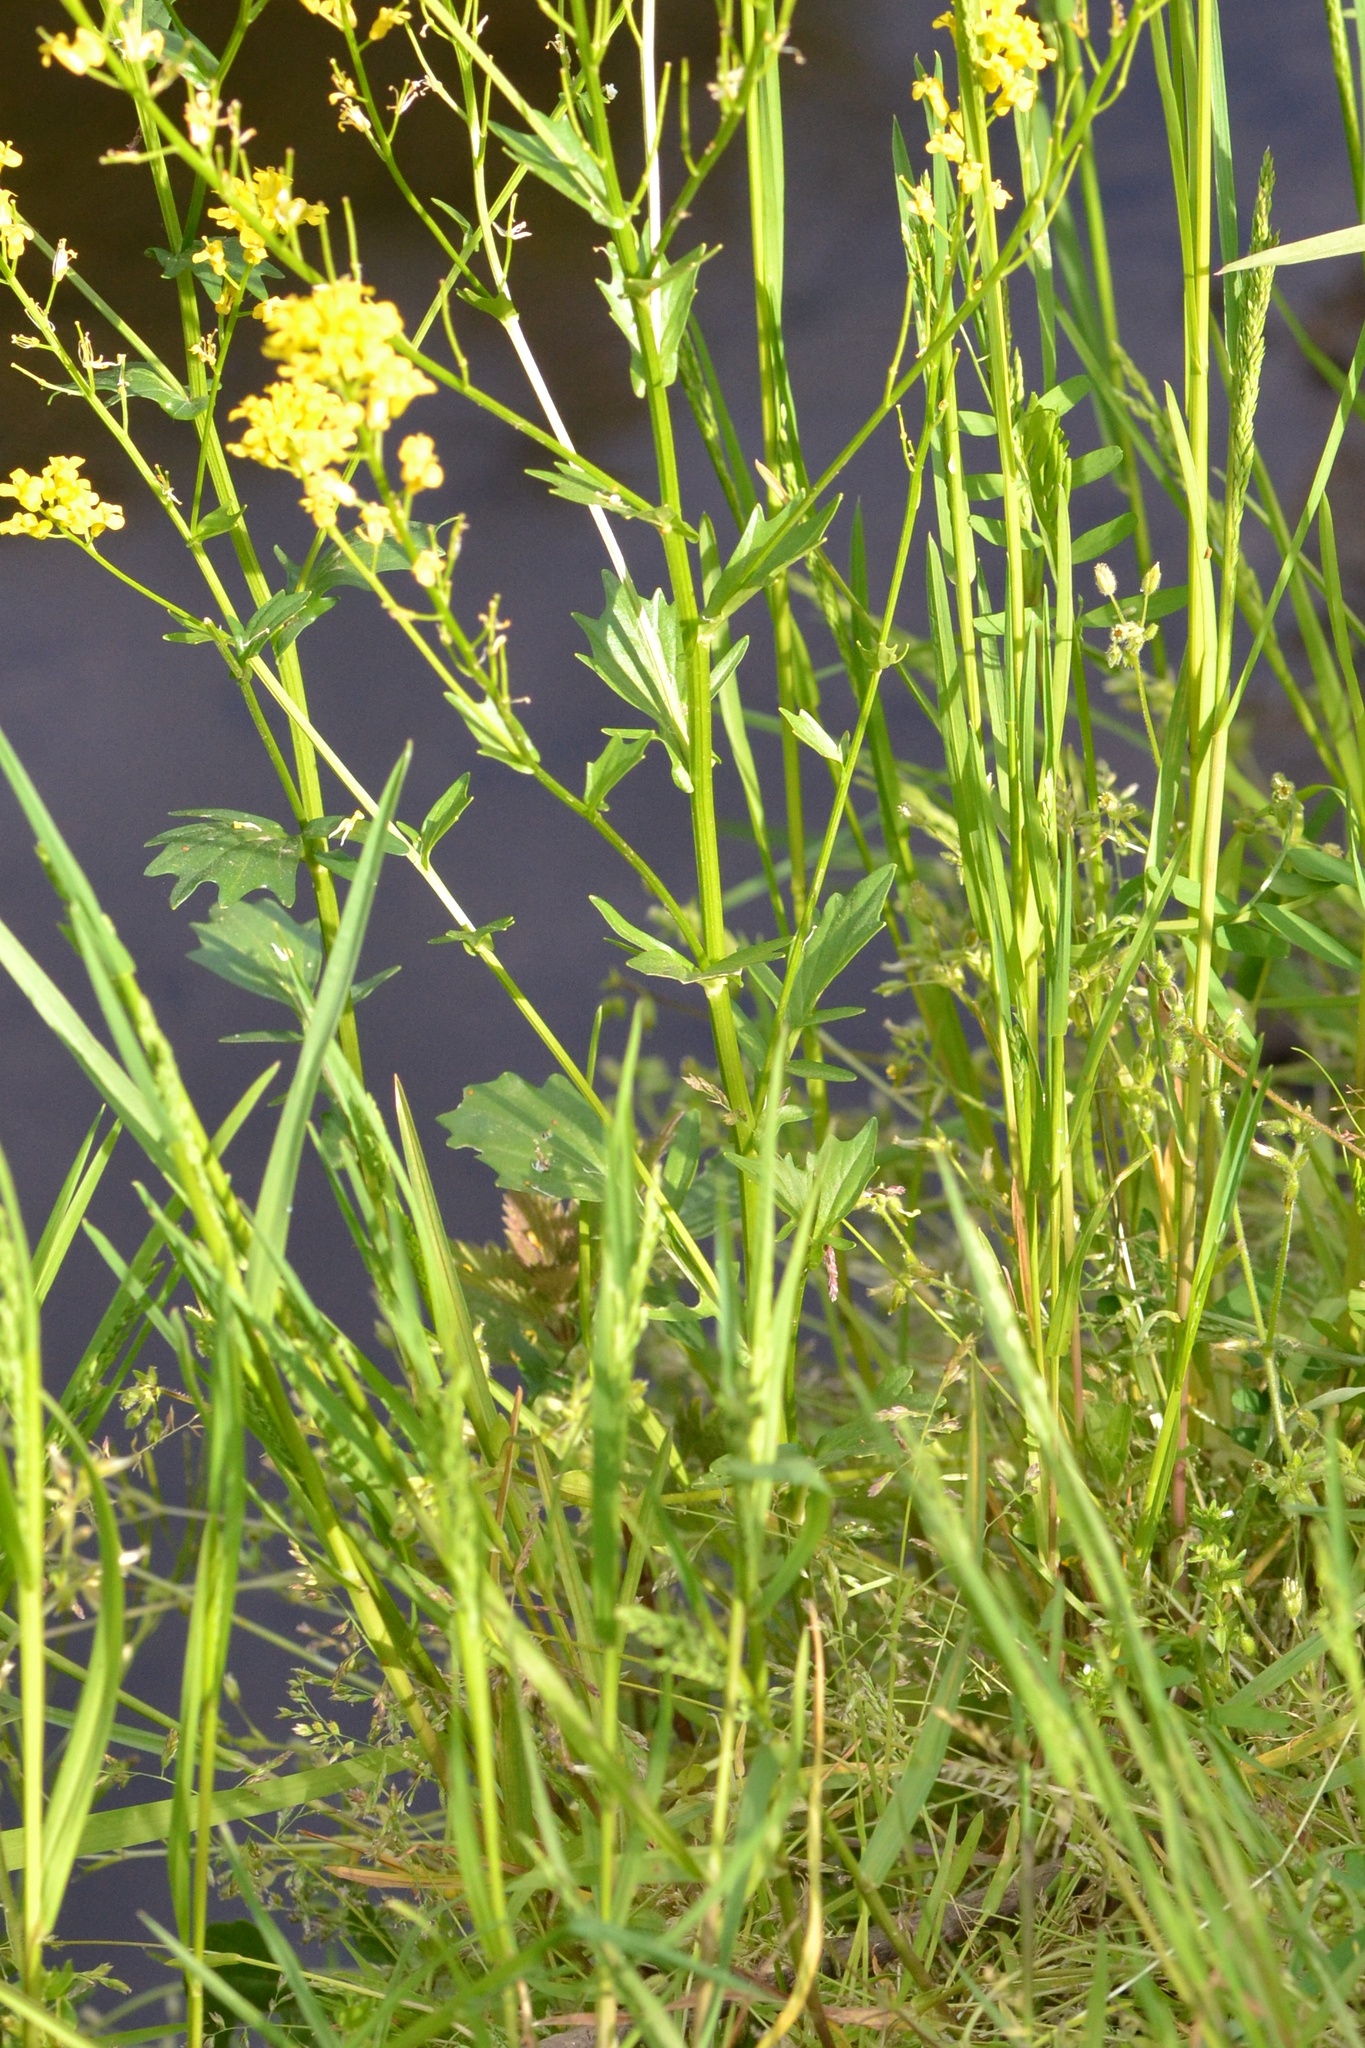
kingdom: Plantae
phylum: Tracheophyta
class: Magnoliopsida
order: Brassicales
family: Brassicaceae
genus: Barbarea
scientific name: Barbarea stricta
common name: Small-flowered winter-cress
